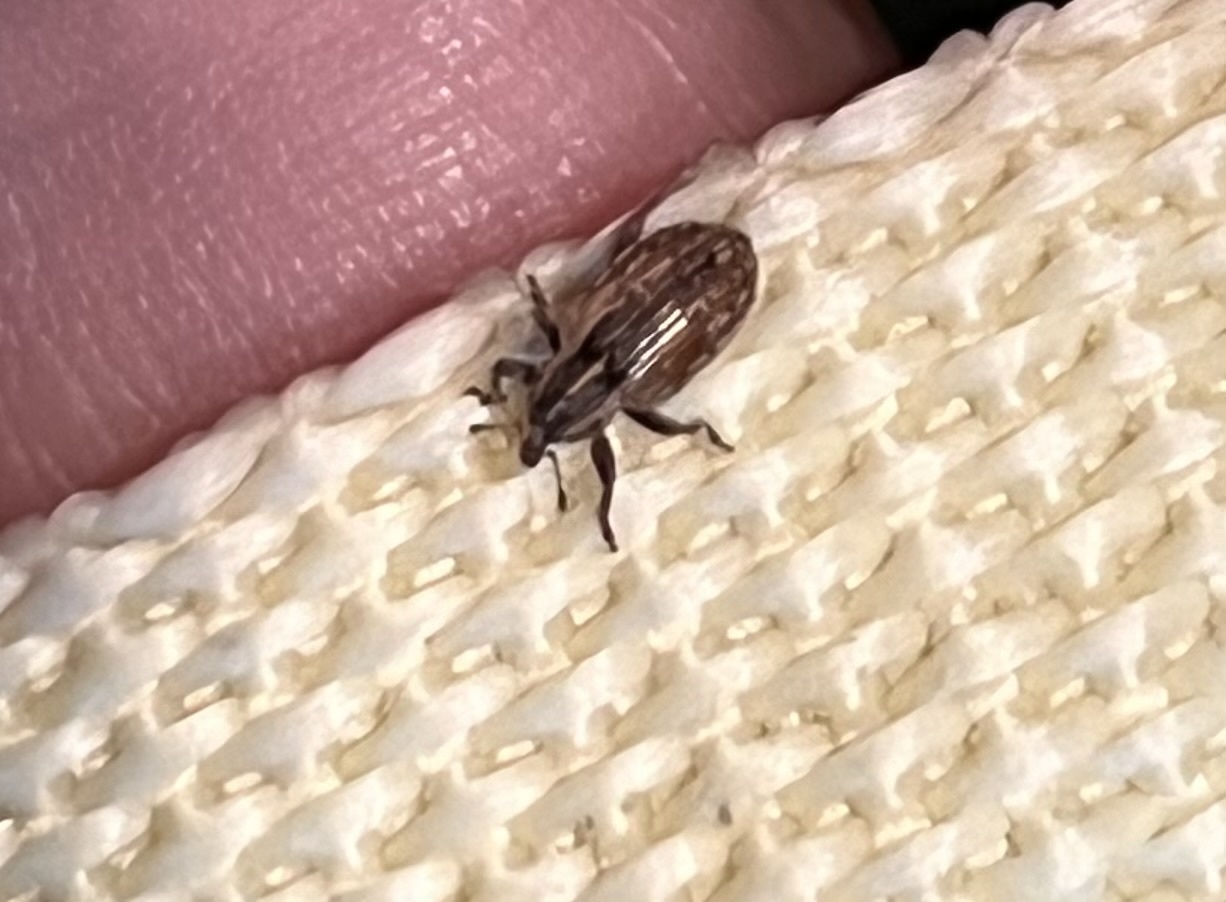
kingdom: Animalia
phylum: Arthropoda
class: Insecta
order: Coleoptera
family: Curculionidae
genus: Hypera
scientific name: Hypera postica
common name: Weevil
